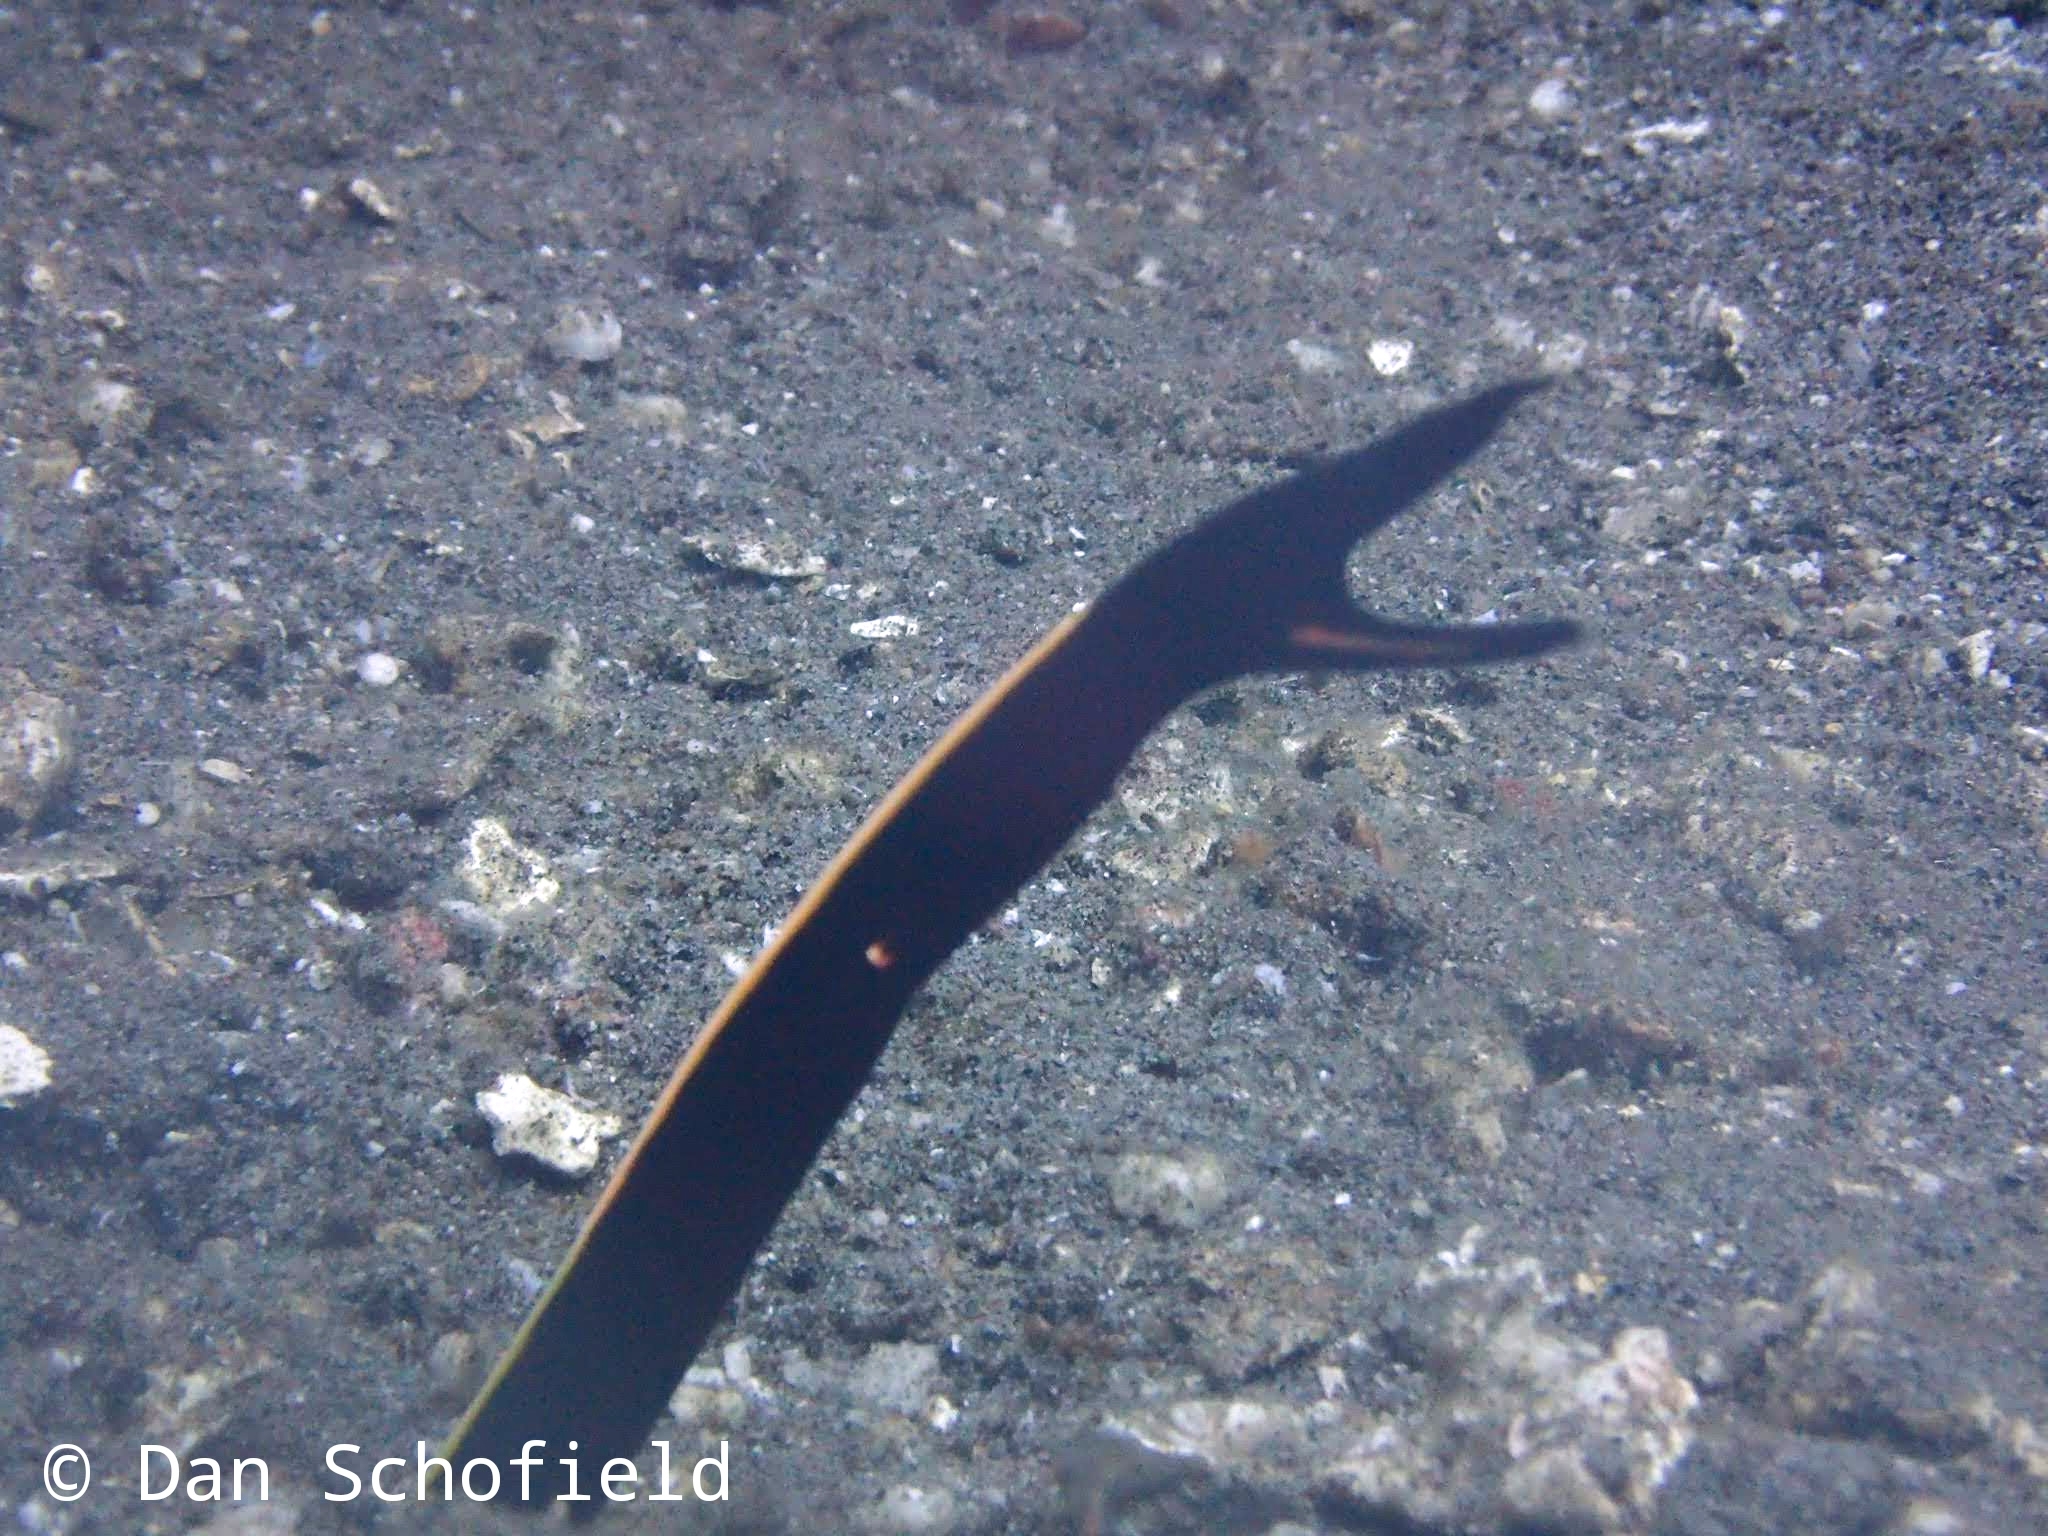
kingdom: Animalia
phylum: Chordata
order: Anguilliformes
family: Muraenidae
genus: Rhinomuraena
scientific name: Rhinomuraena quaesita
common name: Ribbon eel
